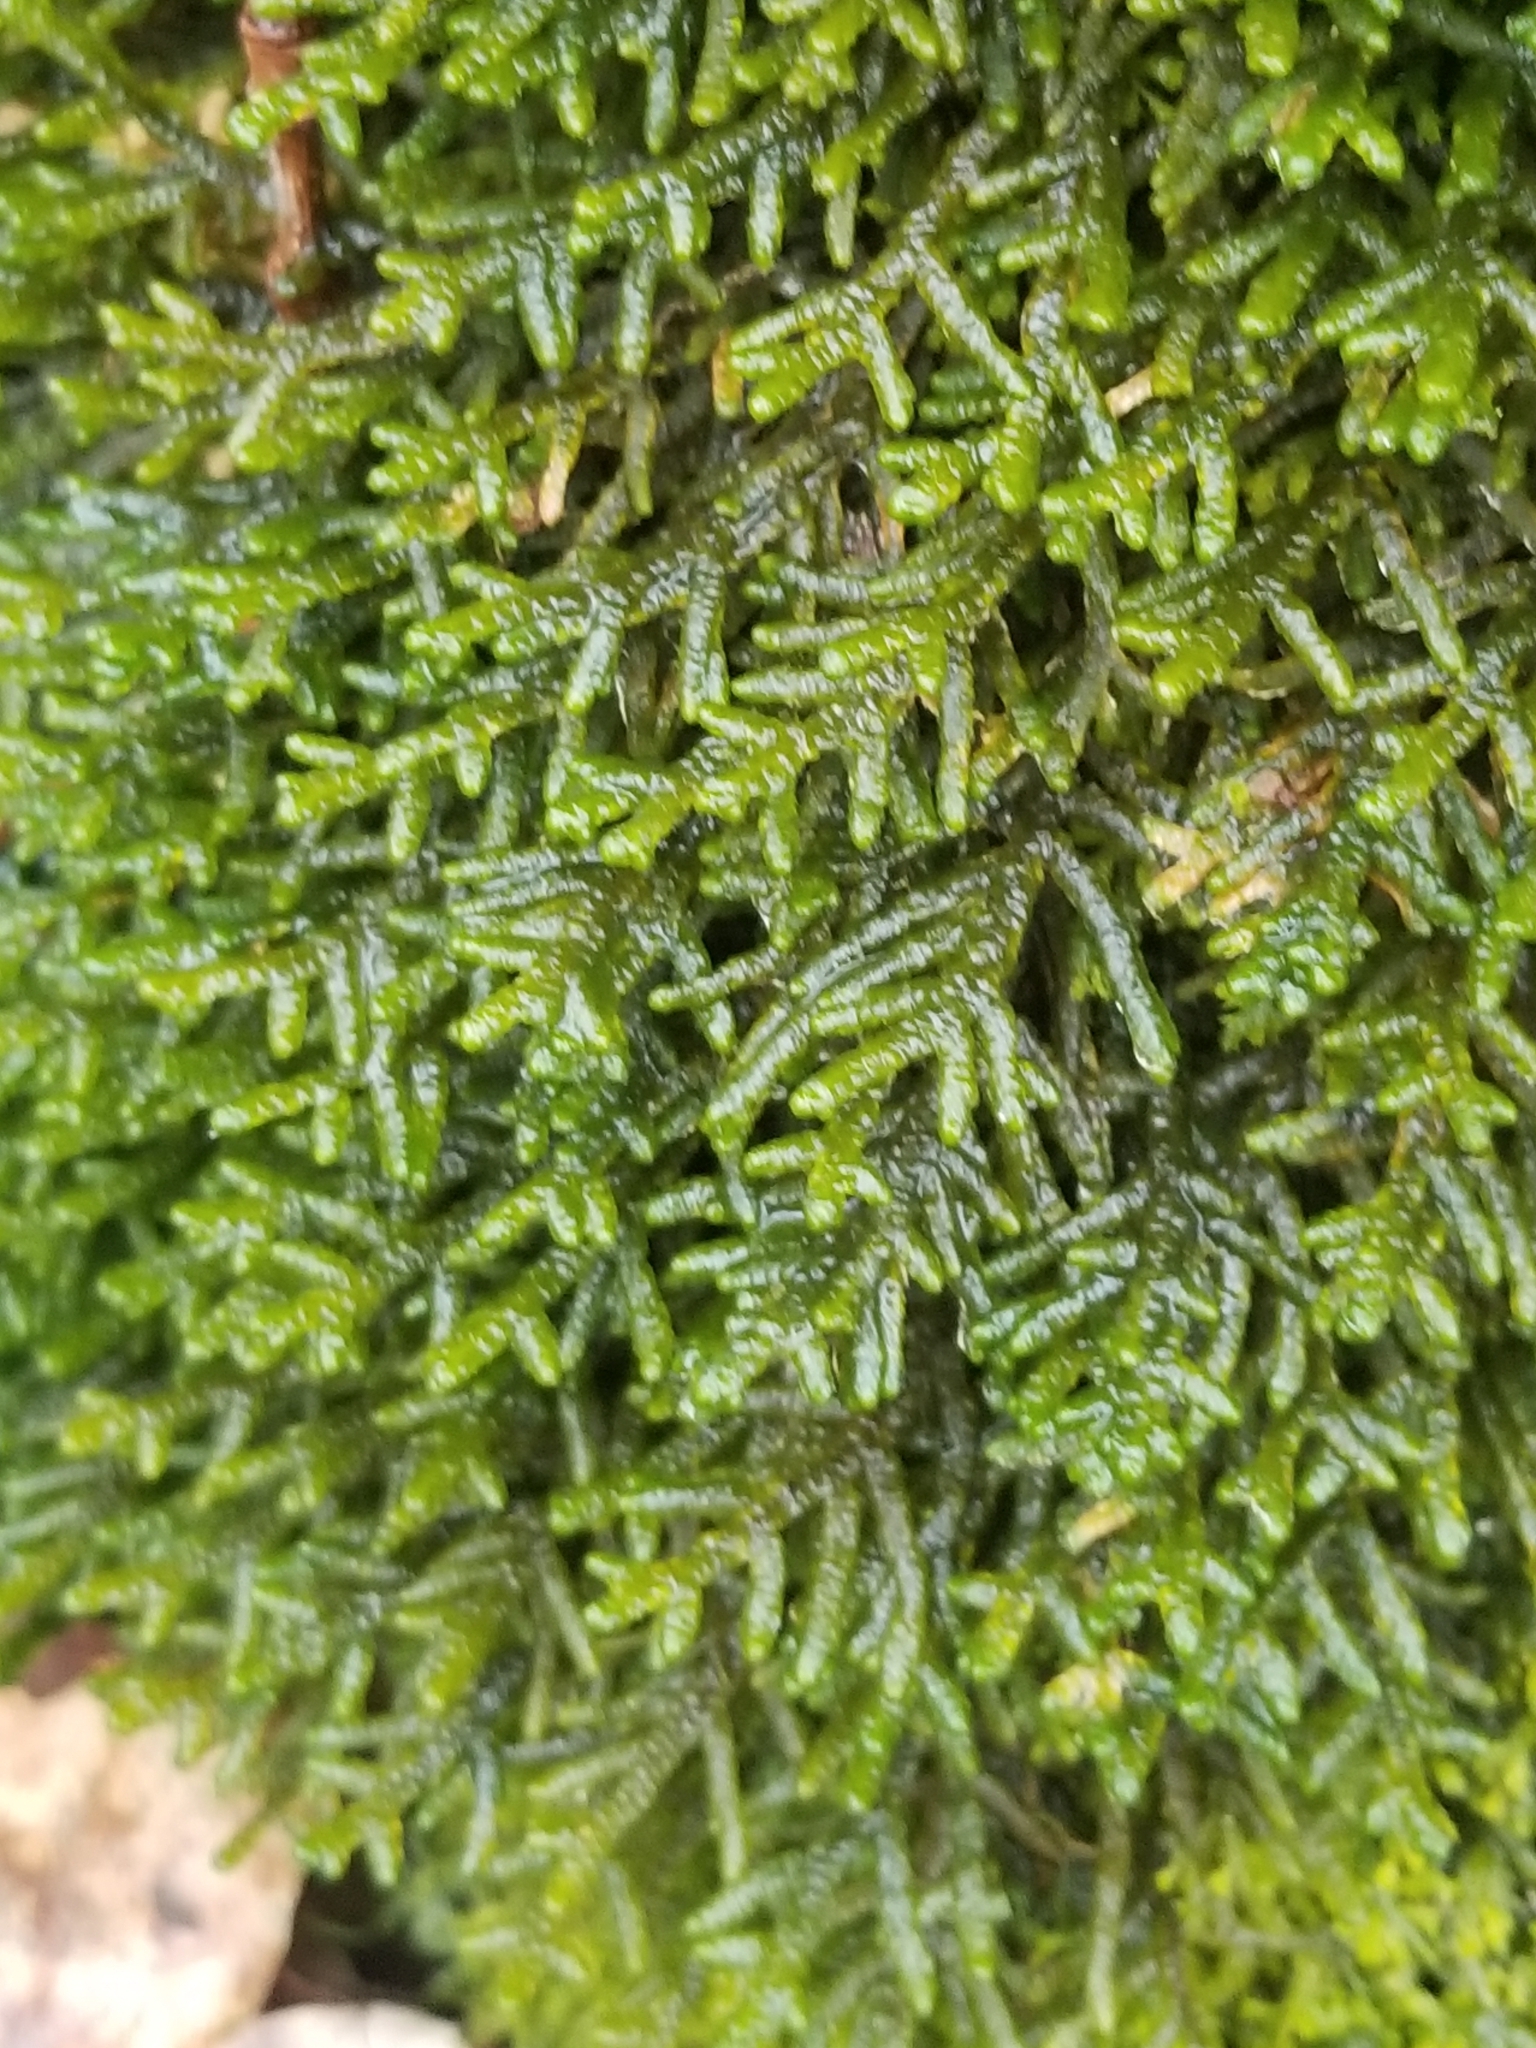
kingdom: Plantae
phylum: Marchantiophyta
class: Jungermanniopsida
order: Porellales
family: Porellaceae
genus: Porella
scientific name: Porella platyphylla
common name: Wall scalewort
